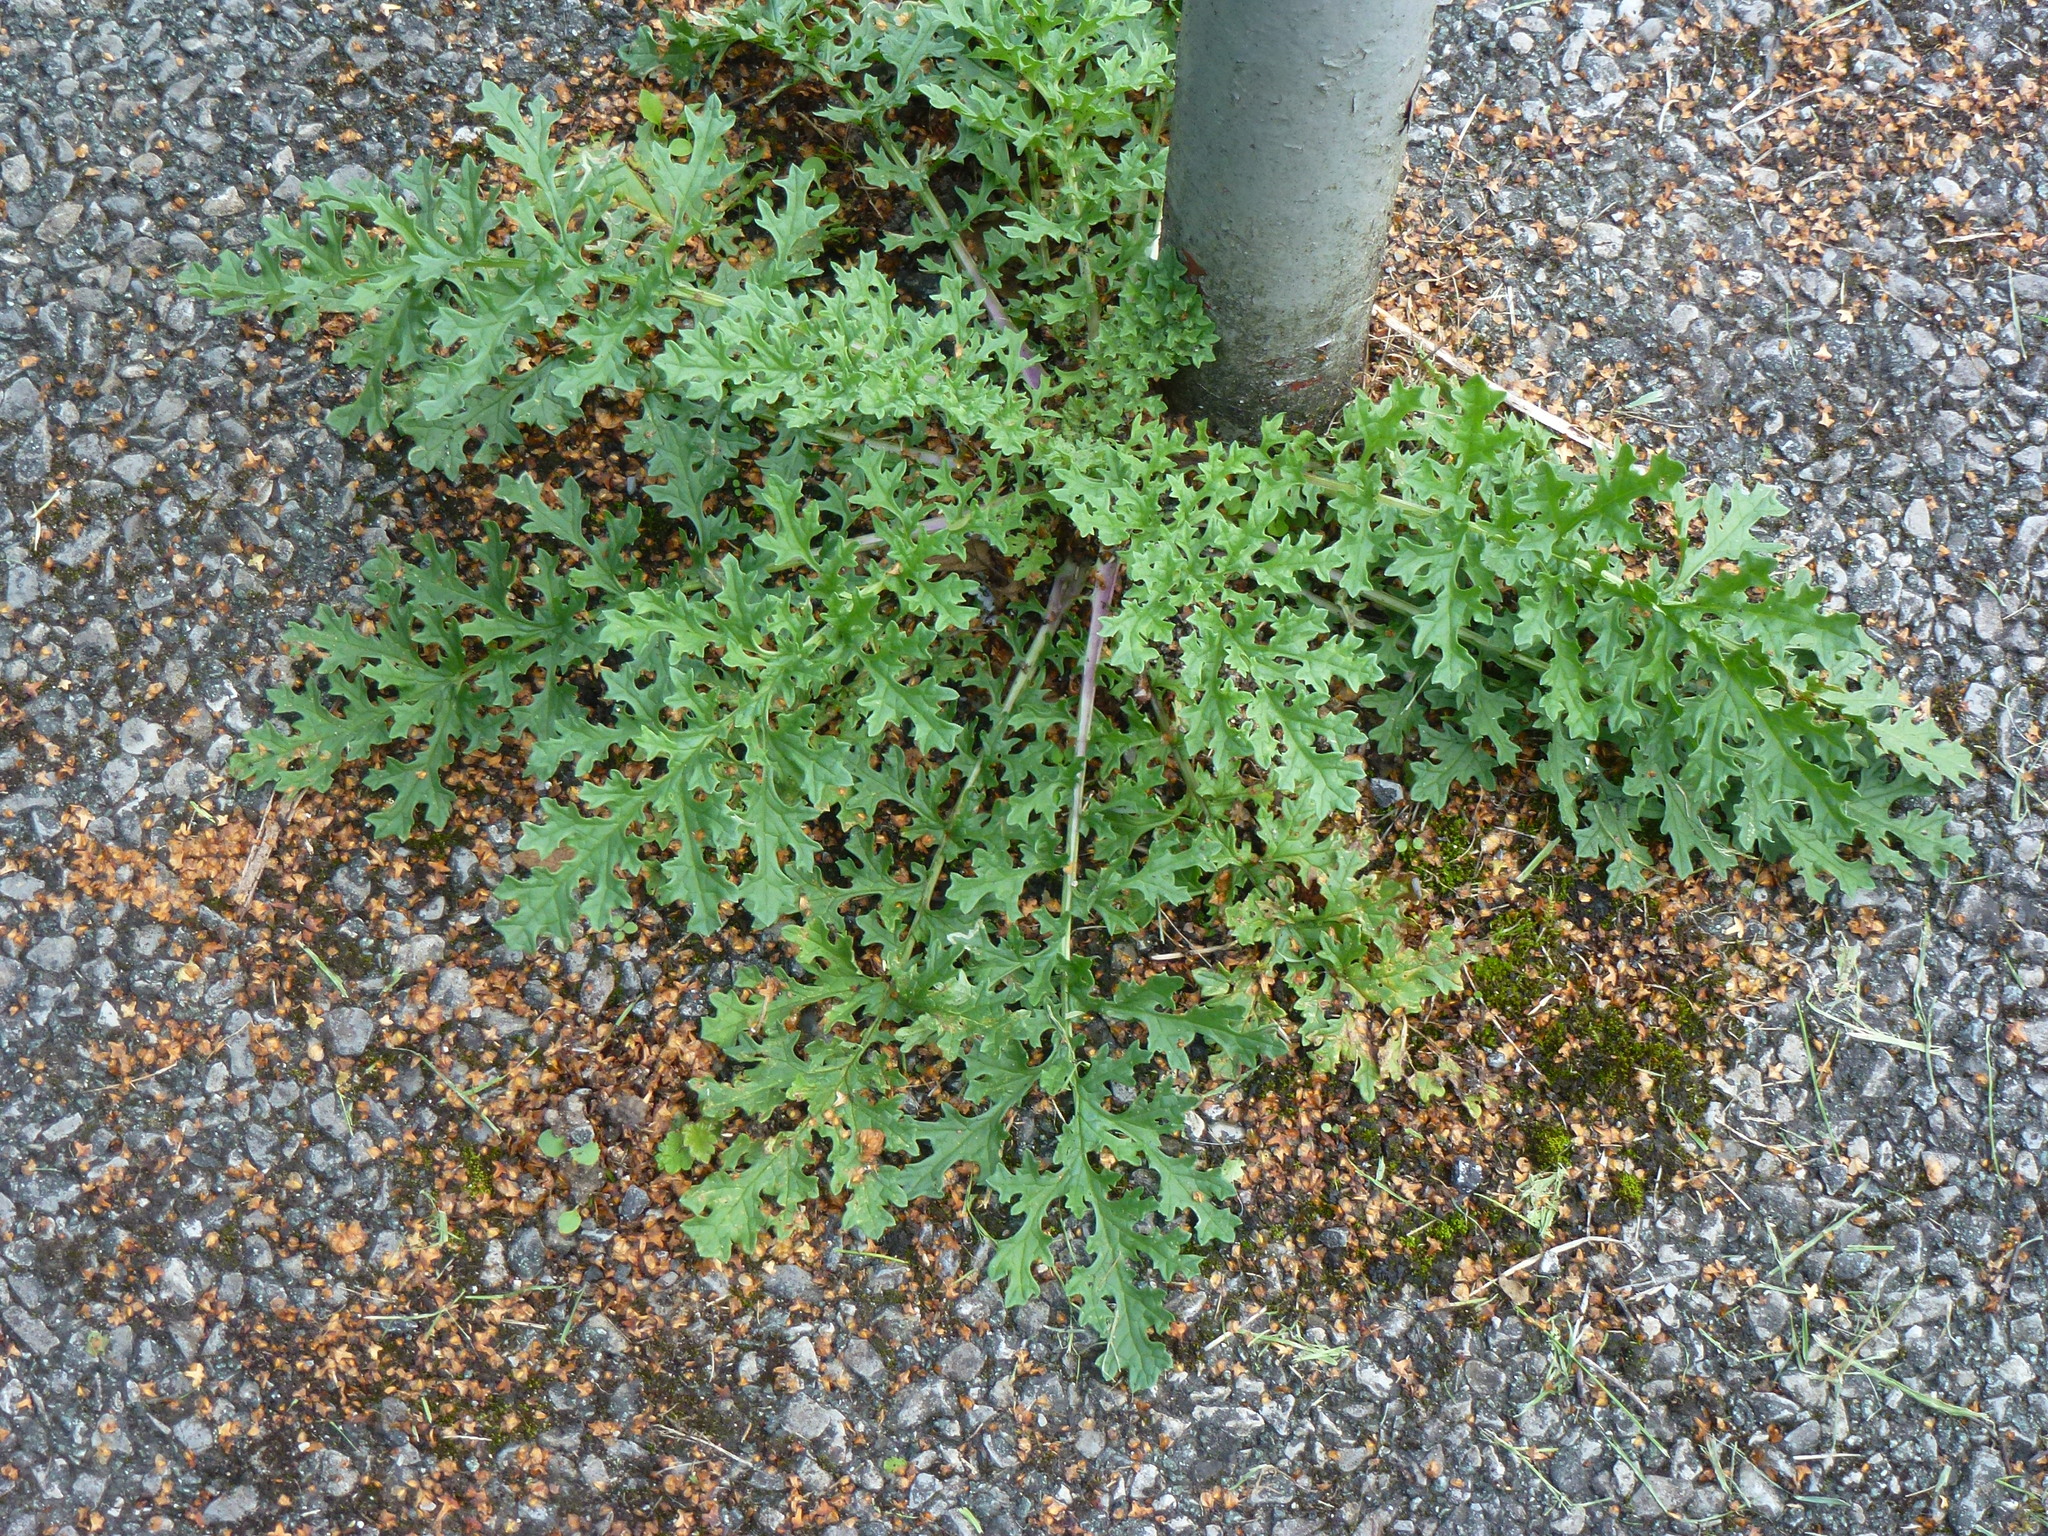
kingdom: Plantae
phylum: Tracheophyta
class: Magnoliopsida
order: Asterales
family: Asteraceae
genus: Jacobaea
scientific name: Jacobaea vulgaris
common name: Stinking willie
